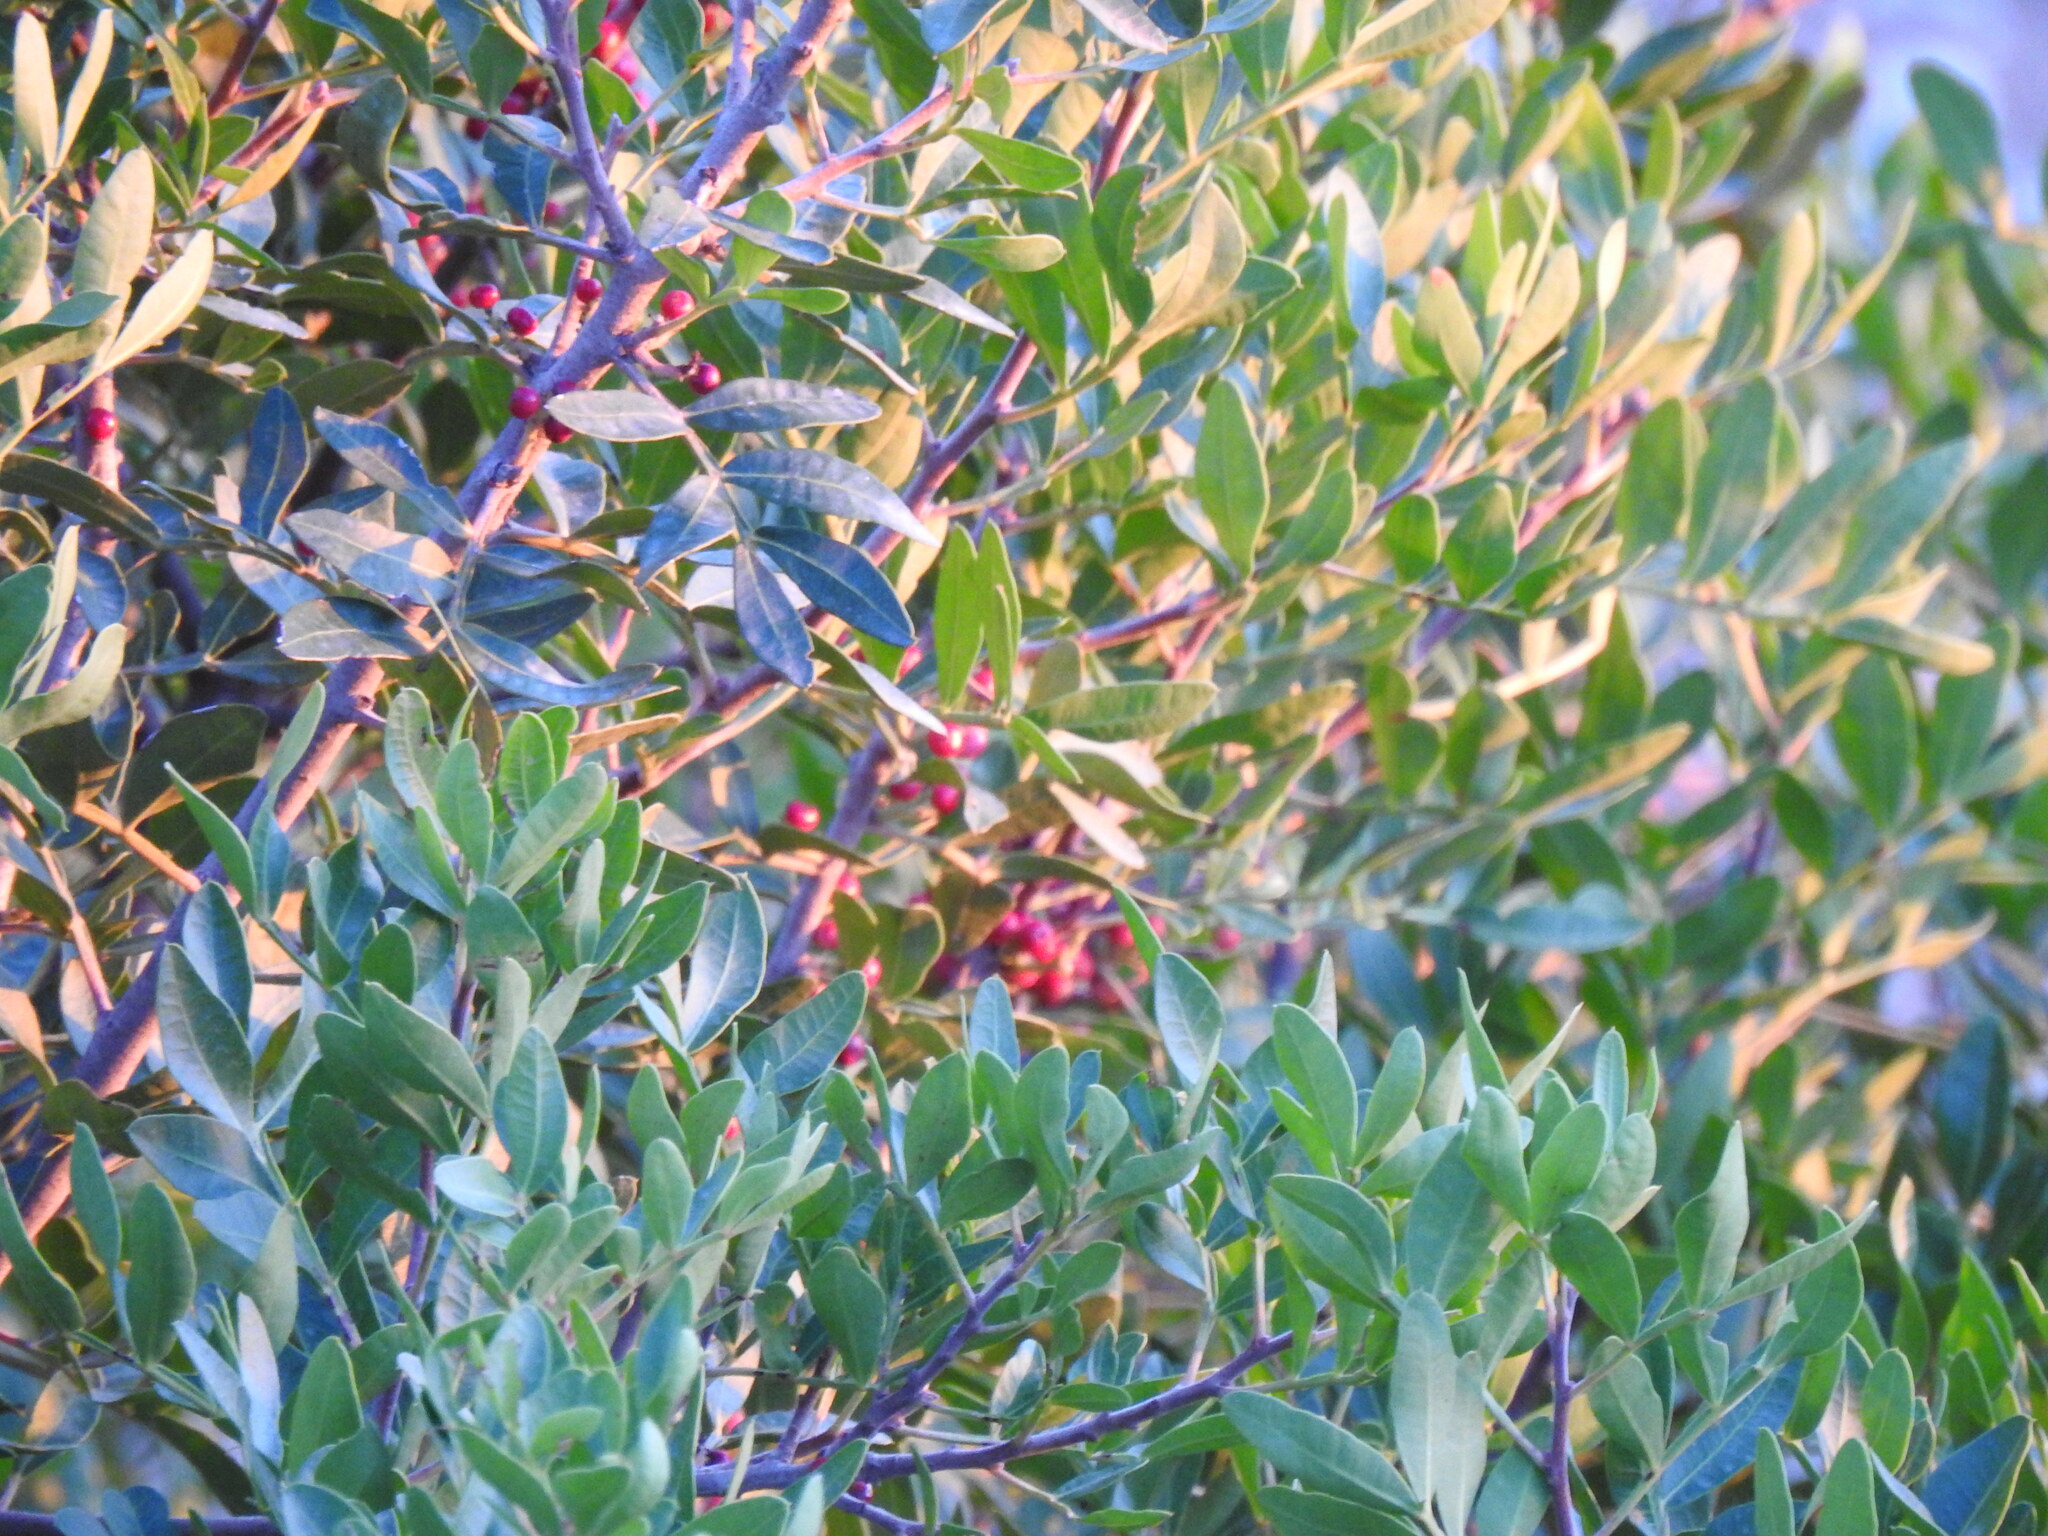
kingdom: Plantae
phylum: Tracheophyta
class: Magnoliopsida
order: Sapindales
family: Anacardiaceae
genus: Pistacia
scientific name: Pistacia lentiscus
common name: Lentisk
